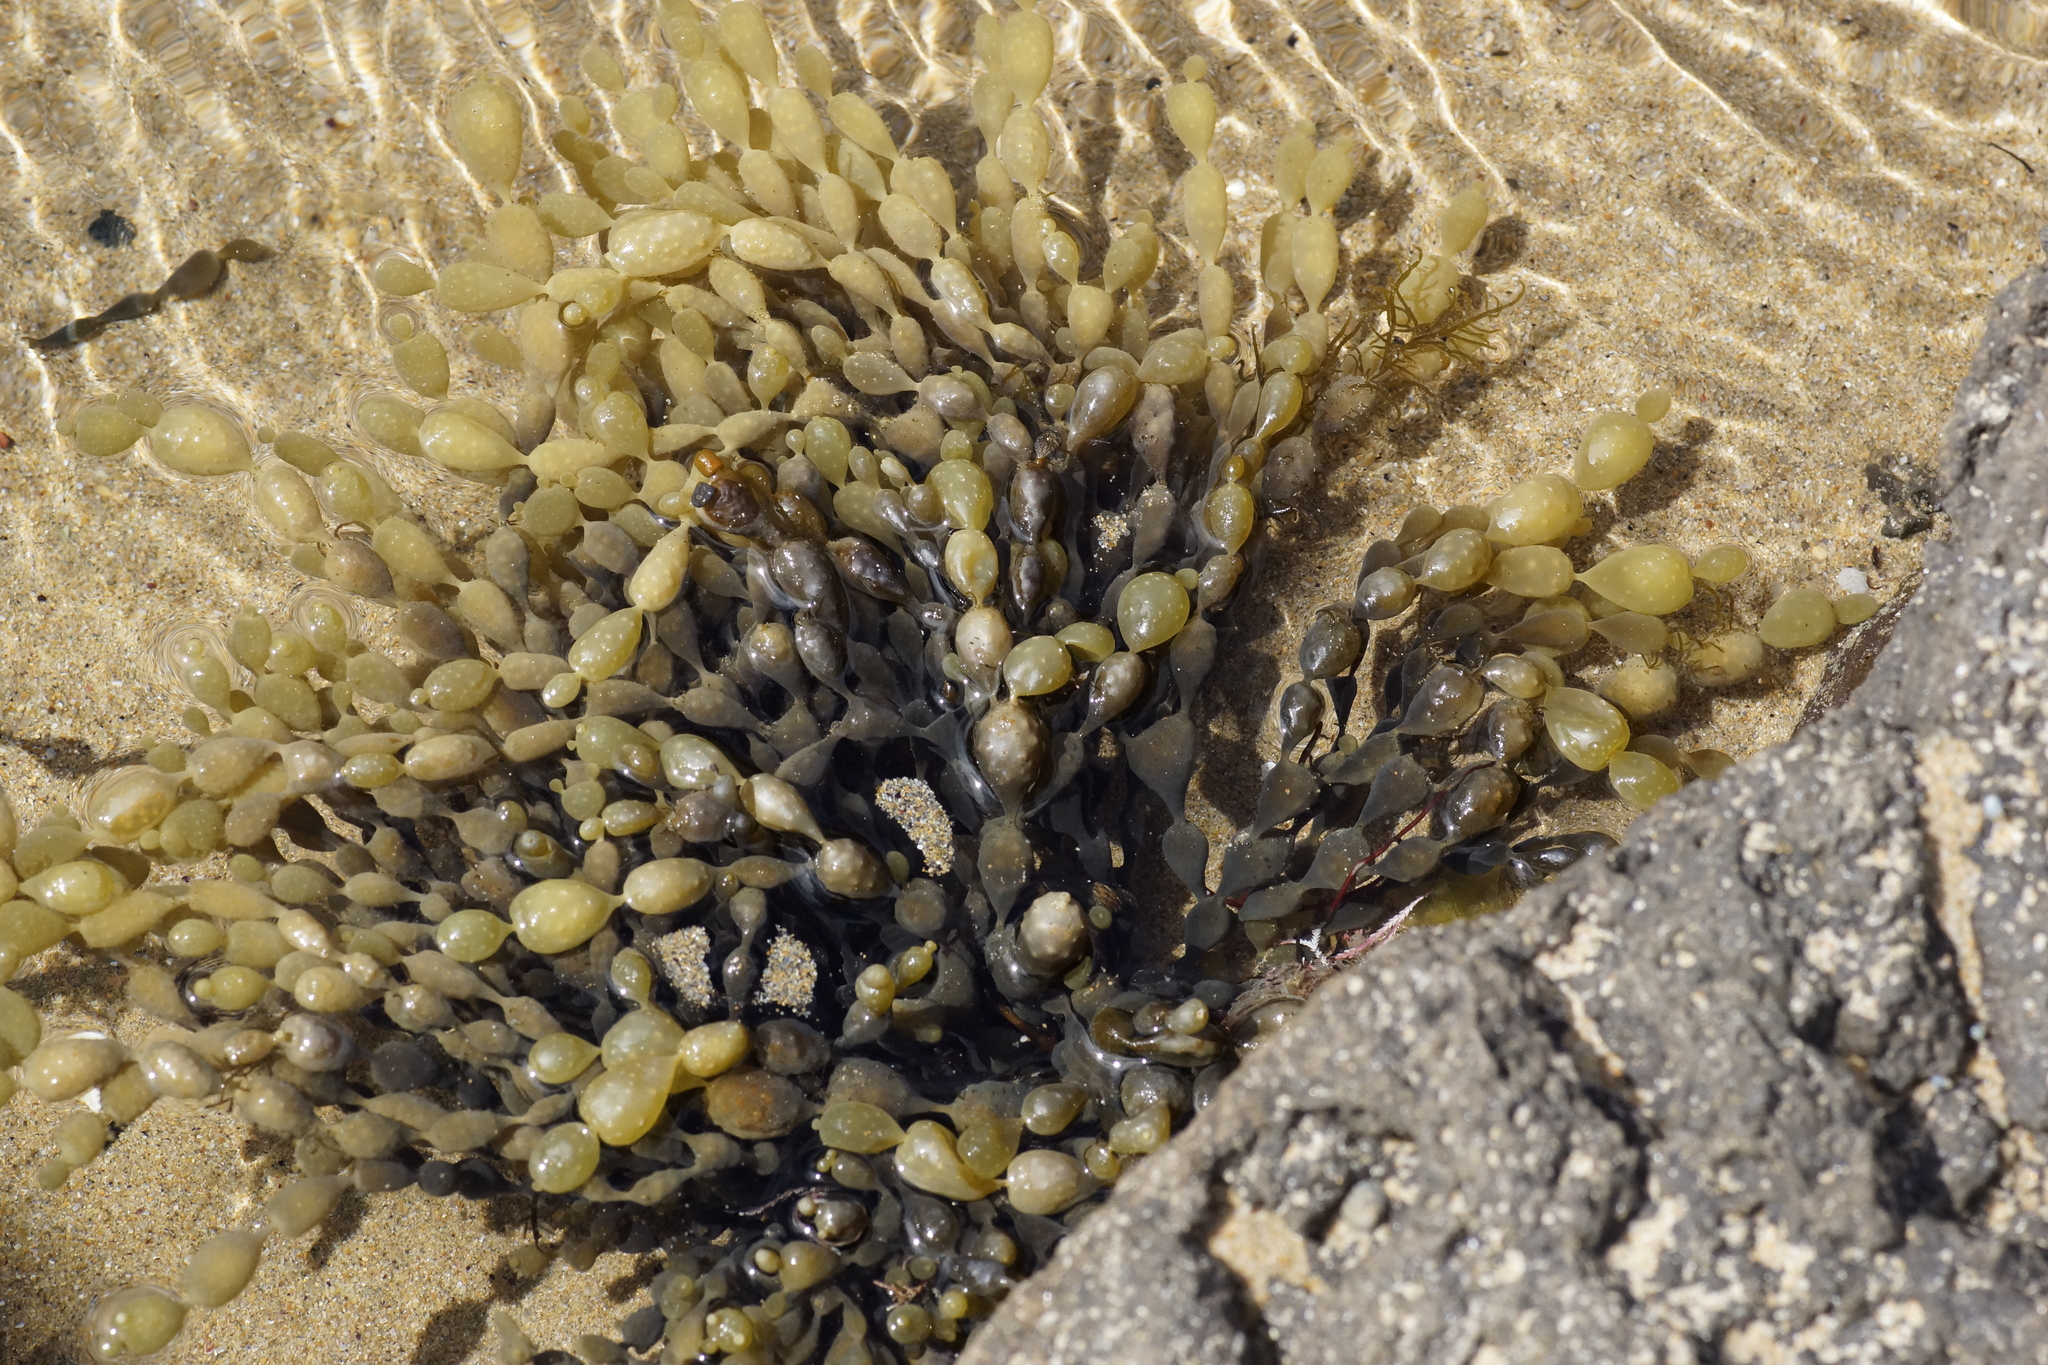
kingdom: Chromista
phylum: Ochrophyta
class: Phaeophyceae
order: Fucales
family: Hormosiraceae
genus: Hormosira
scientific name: Hormosira banksii
